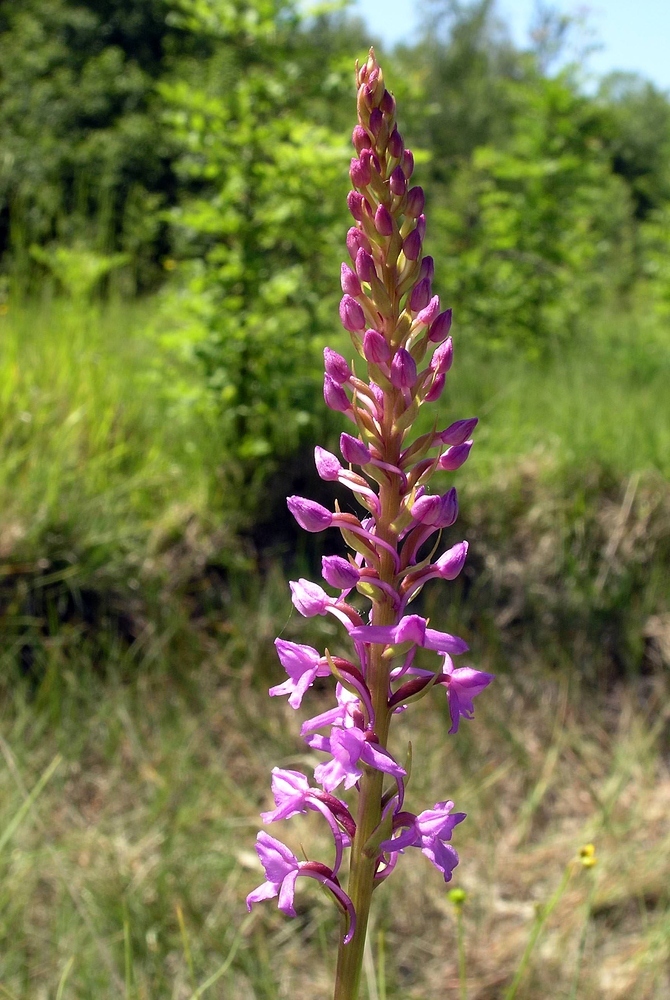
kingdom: Plantae
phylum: Tracheophyta
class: Liliopsida
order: Asparagales
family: Orchidaceae
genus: Gymnadenia
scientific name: Gymnadenia conopsea
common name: Fragrant orchid
